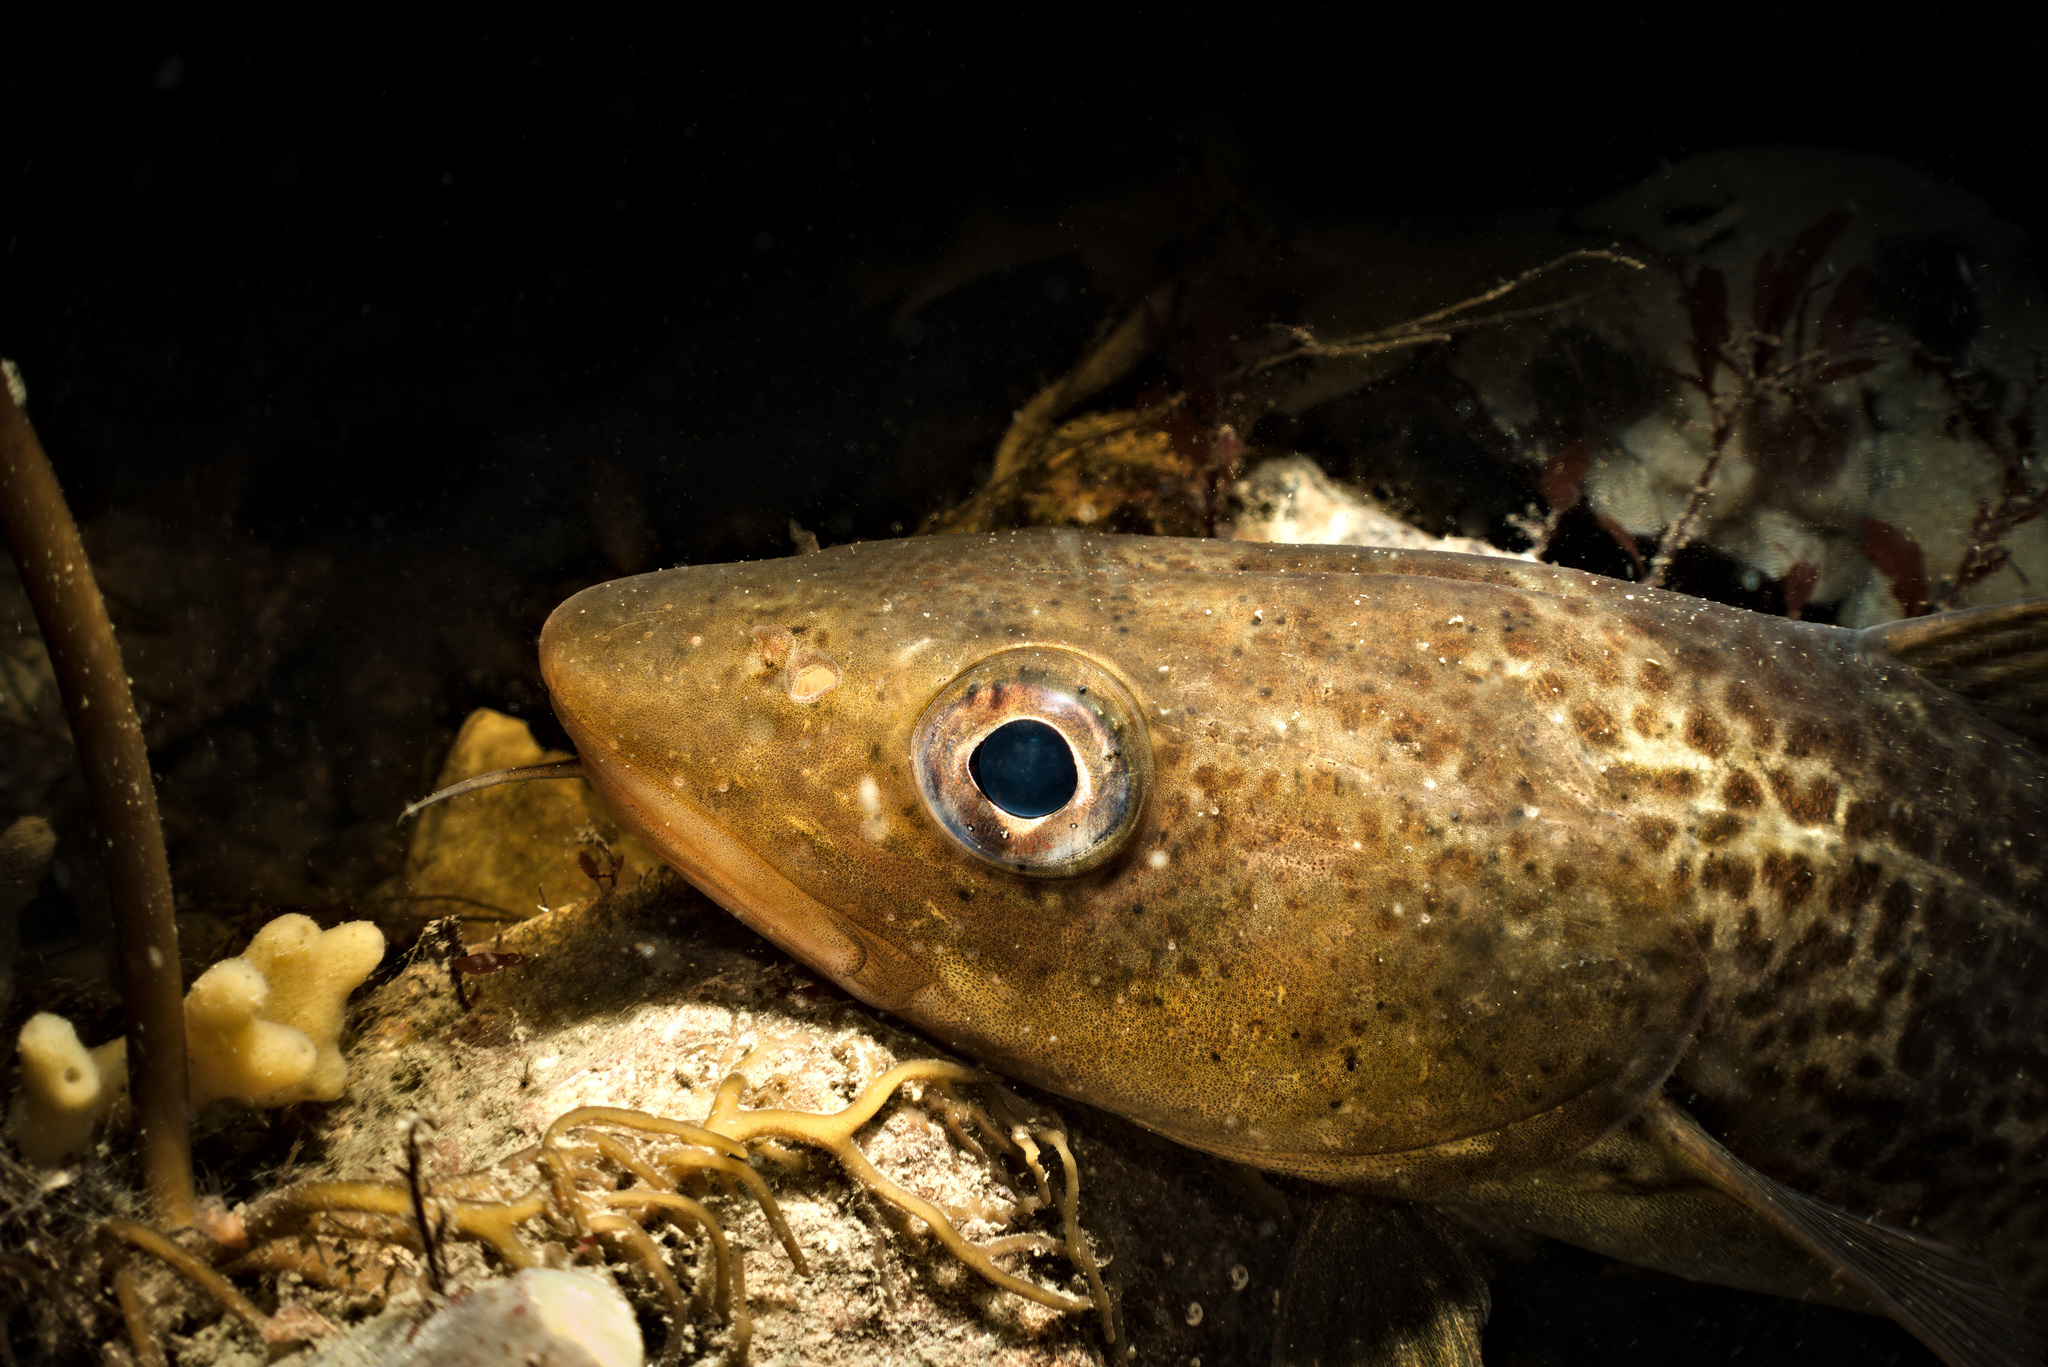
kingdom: Animalia
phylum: Chordata
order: Gadiformes
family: Gadidae
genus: Gadus
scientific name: Gadus morhua
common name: Atlantic cod
